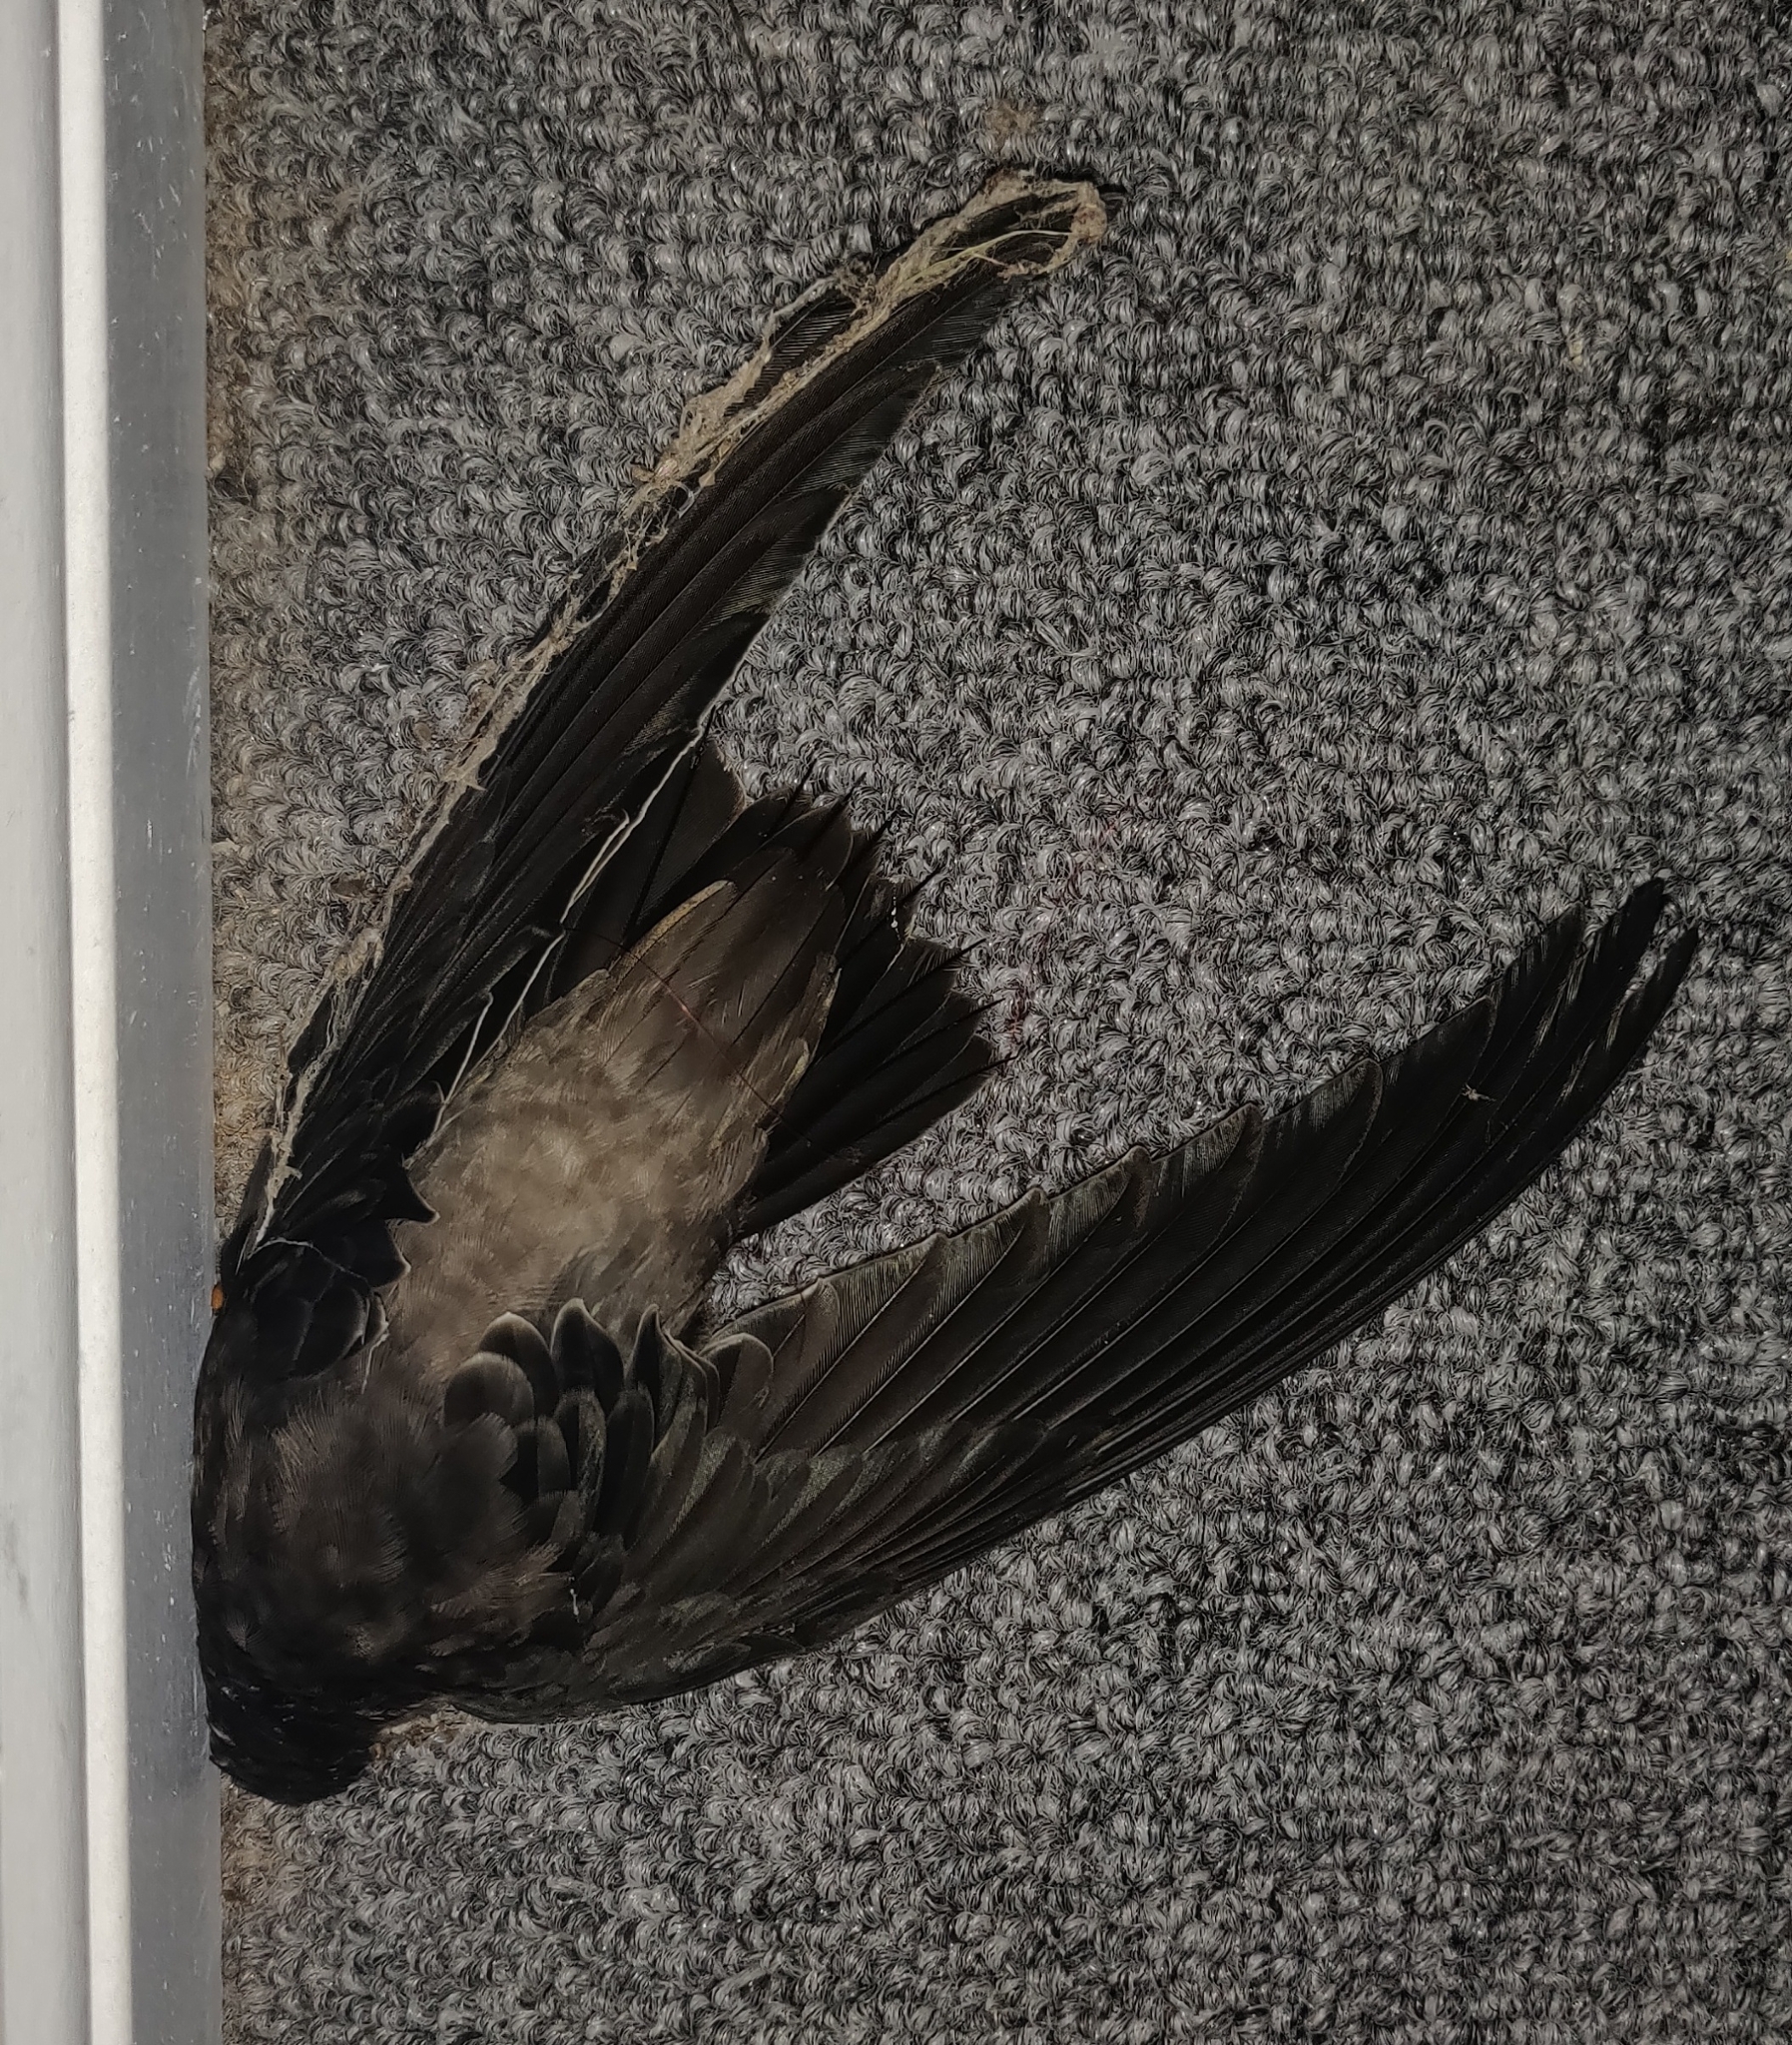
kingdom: Animalia
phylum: Chordata
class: Aves
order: Apodiformes
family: Apodidae
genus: Chaetura
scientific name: Chaetura pelagica
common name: Chimney swift
